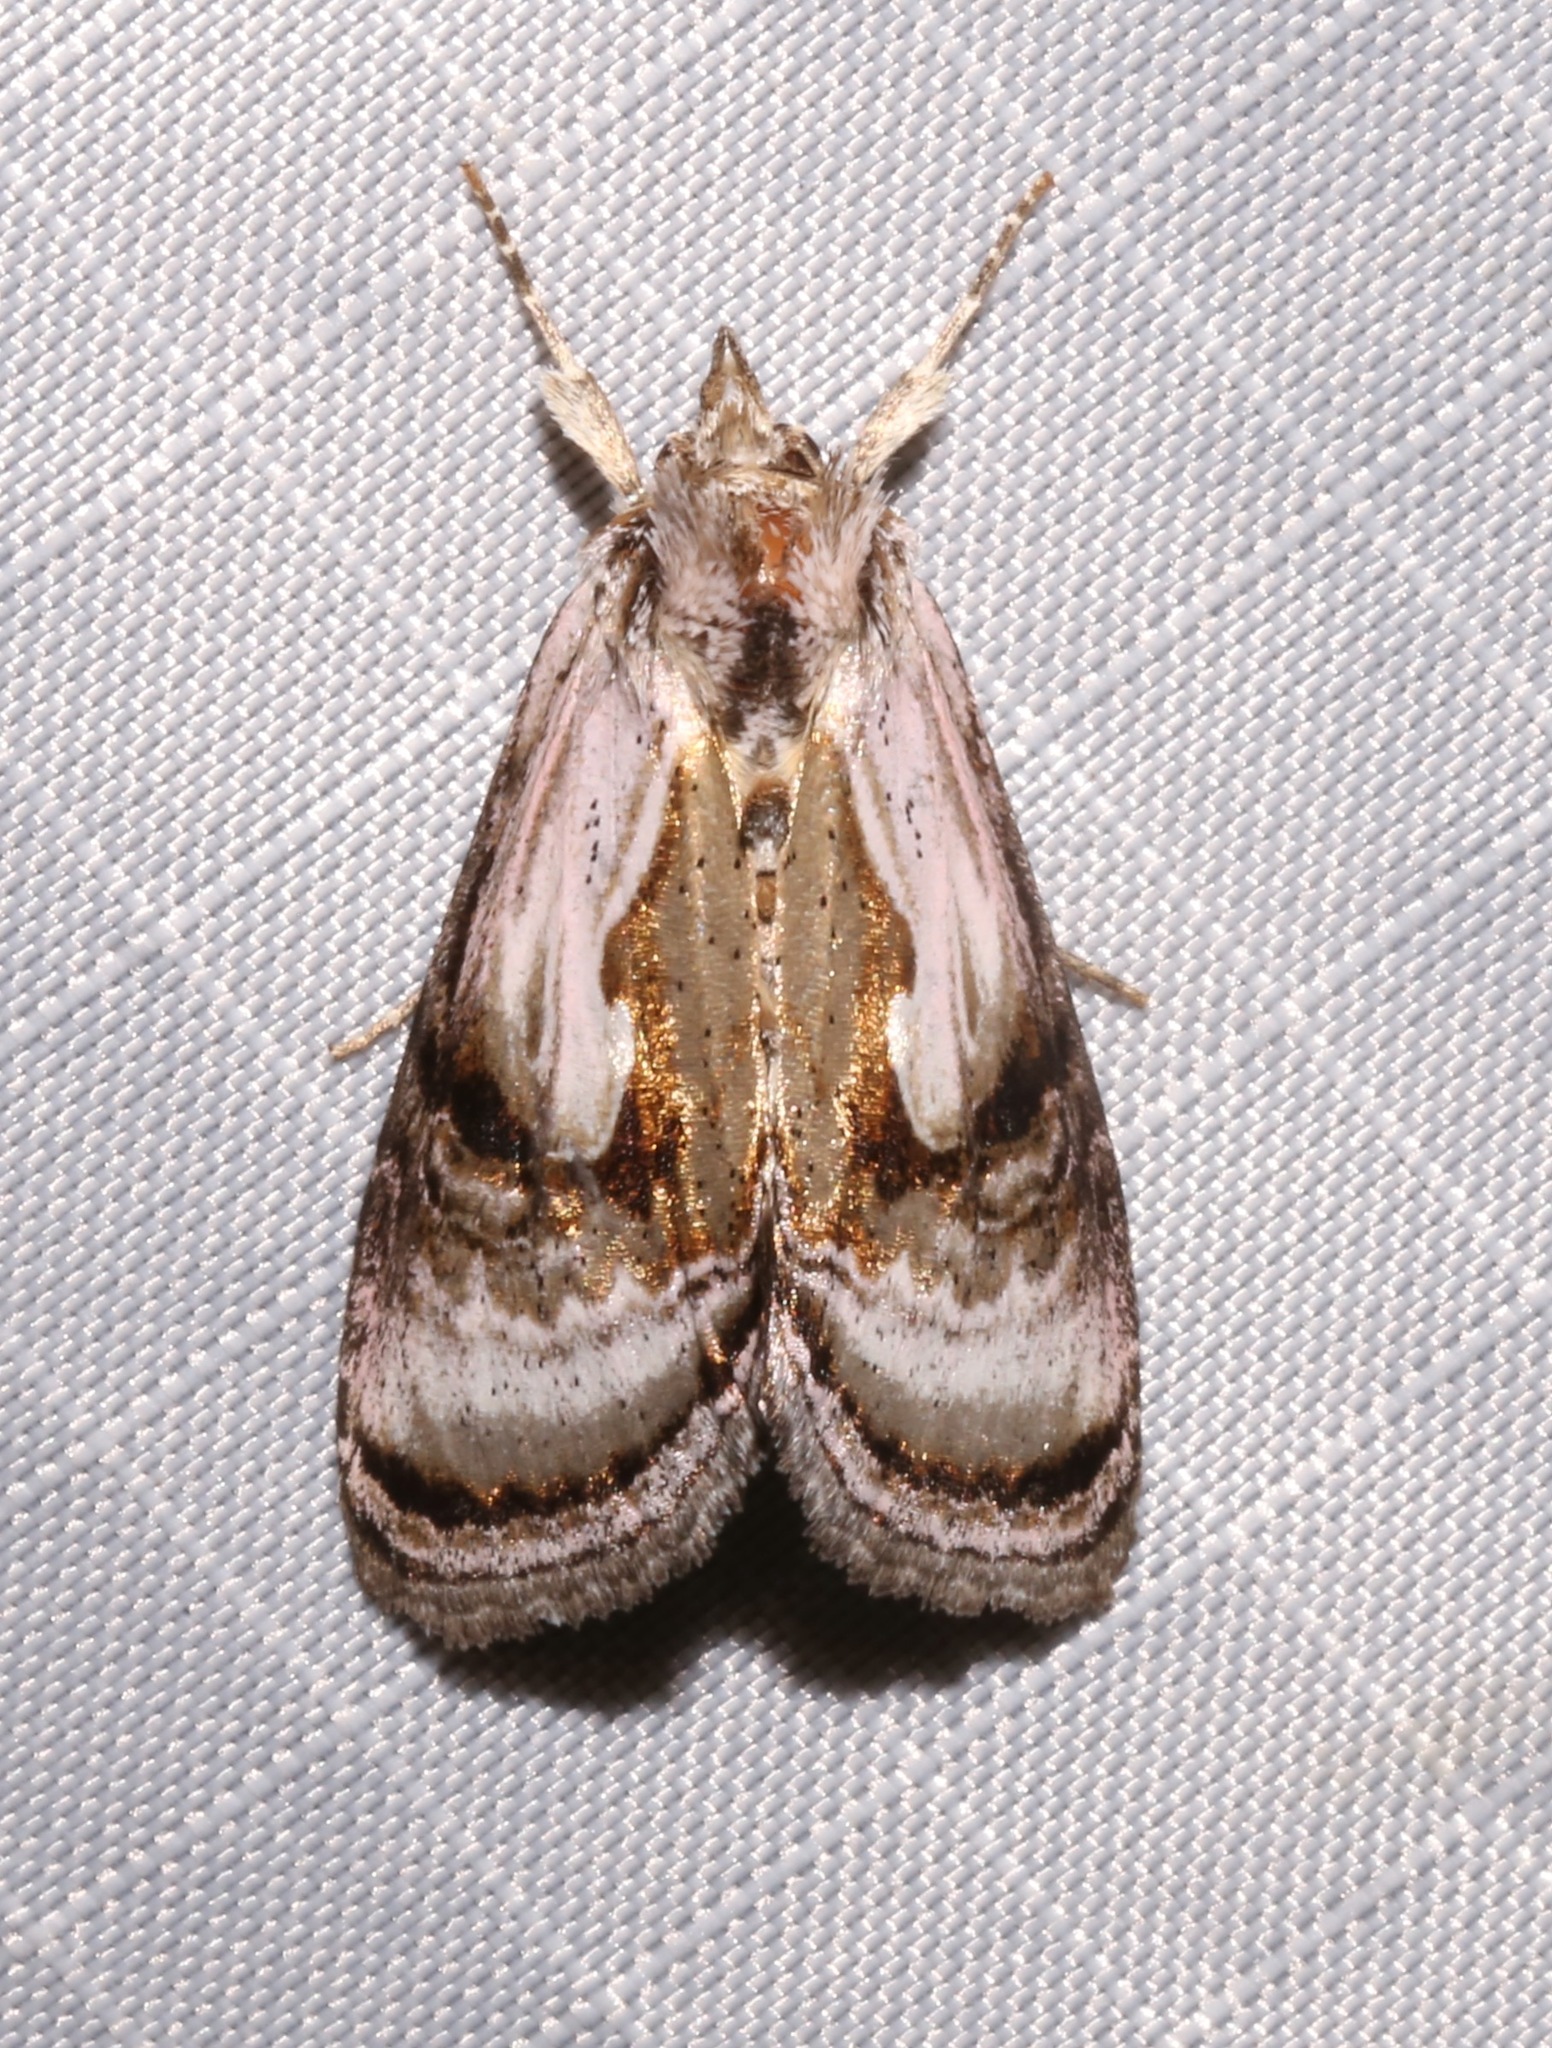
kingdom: Animalia
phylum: Arthropoda
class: Insecta
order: Lepidoptera
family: Noctuidae
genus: Chrysanympha
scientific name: Chrysanympha formosa
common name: Formosa looper moth
